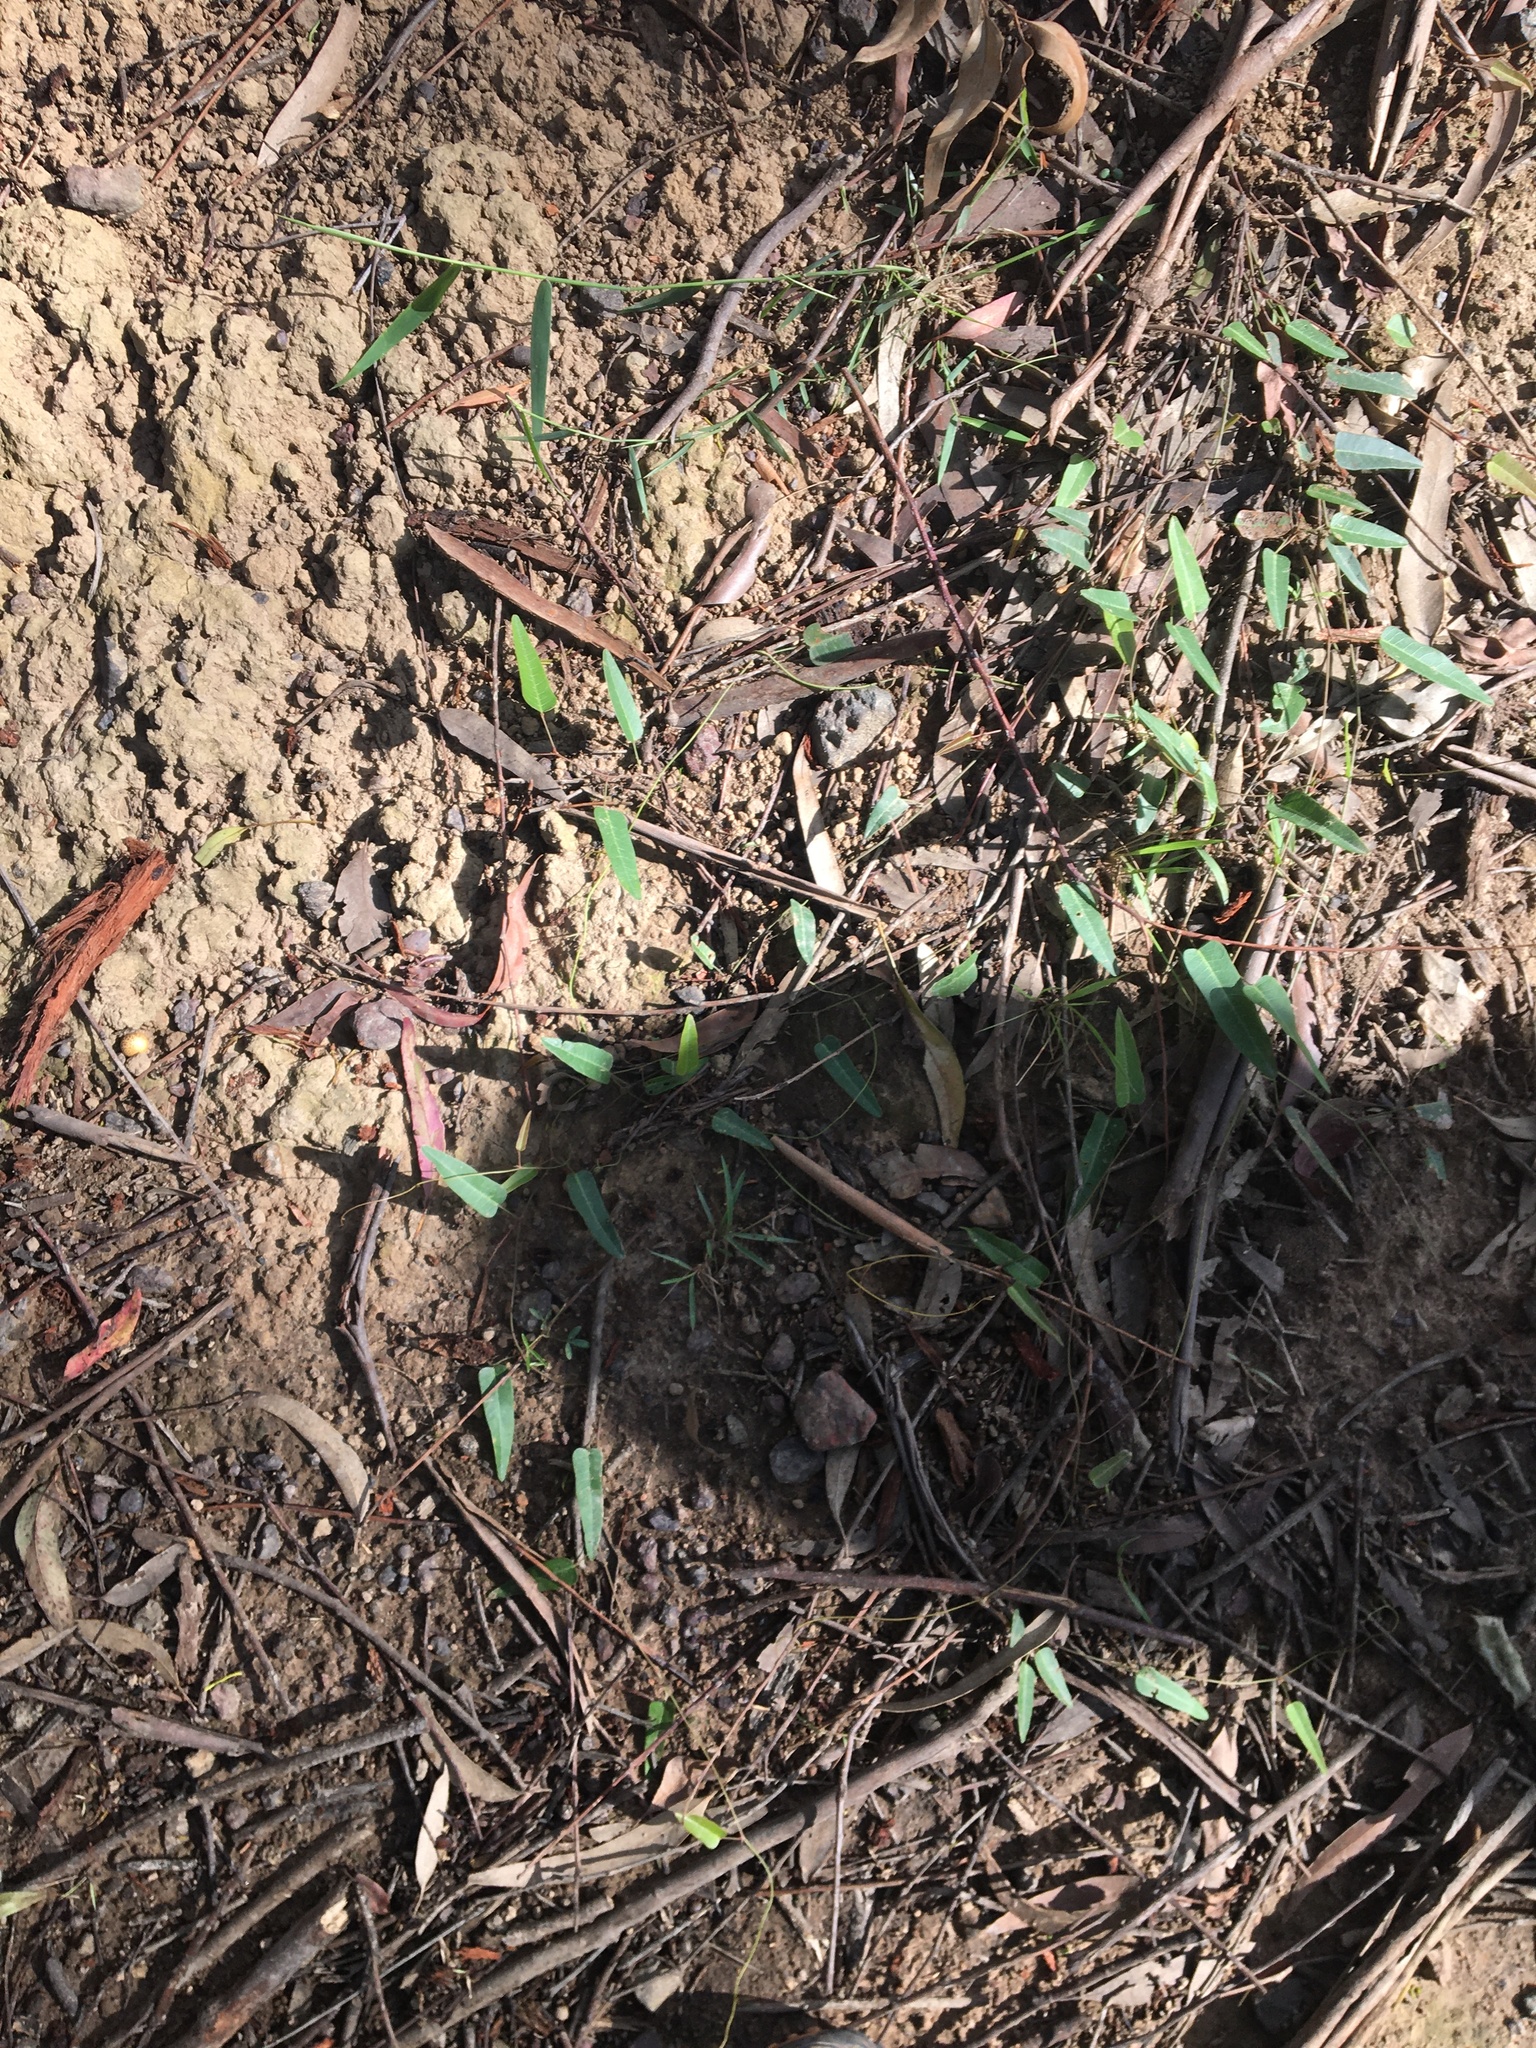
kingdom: Plantae
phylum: Tracheophyta
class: Magnoliopsida
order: Fabales
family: Fabaceae
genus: Hardenbergia
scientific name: Hardenbergia violacea
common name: Coral-pea
